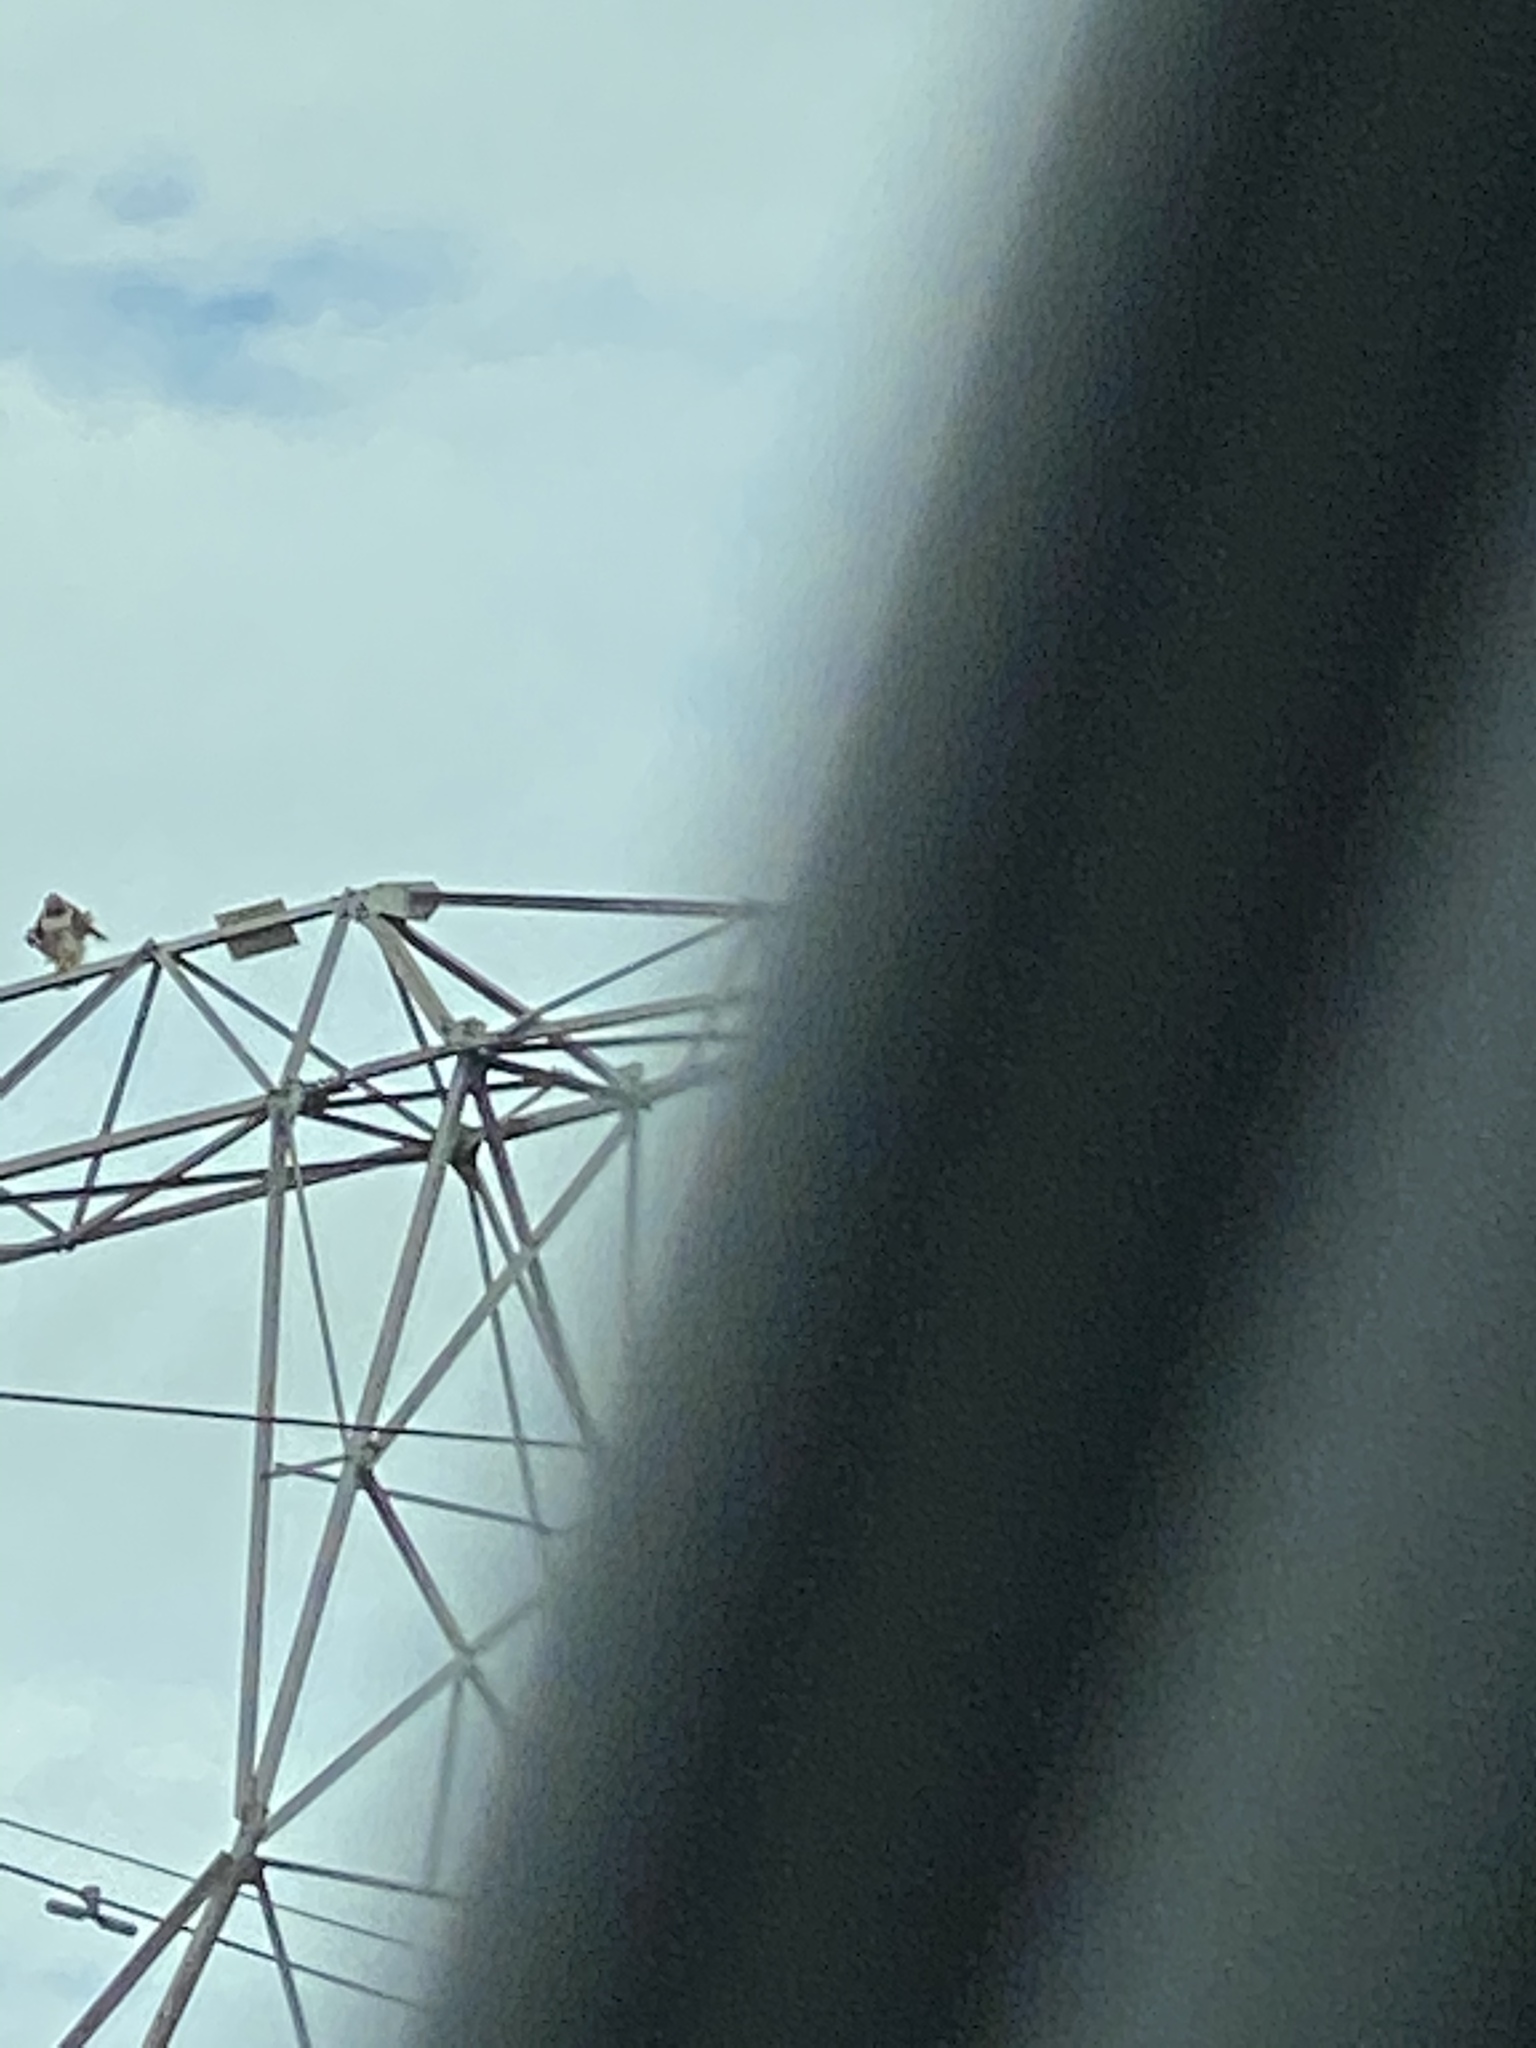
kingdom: Animalia
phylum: Chordata
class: Aves
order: Accipitriformes
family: Accipitridae
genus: Buteo
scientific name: Buteo jamaicensis
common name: Red-tailed hawk
